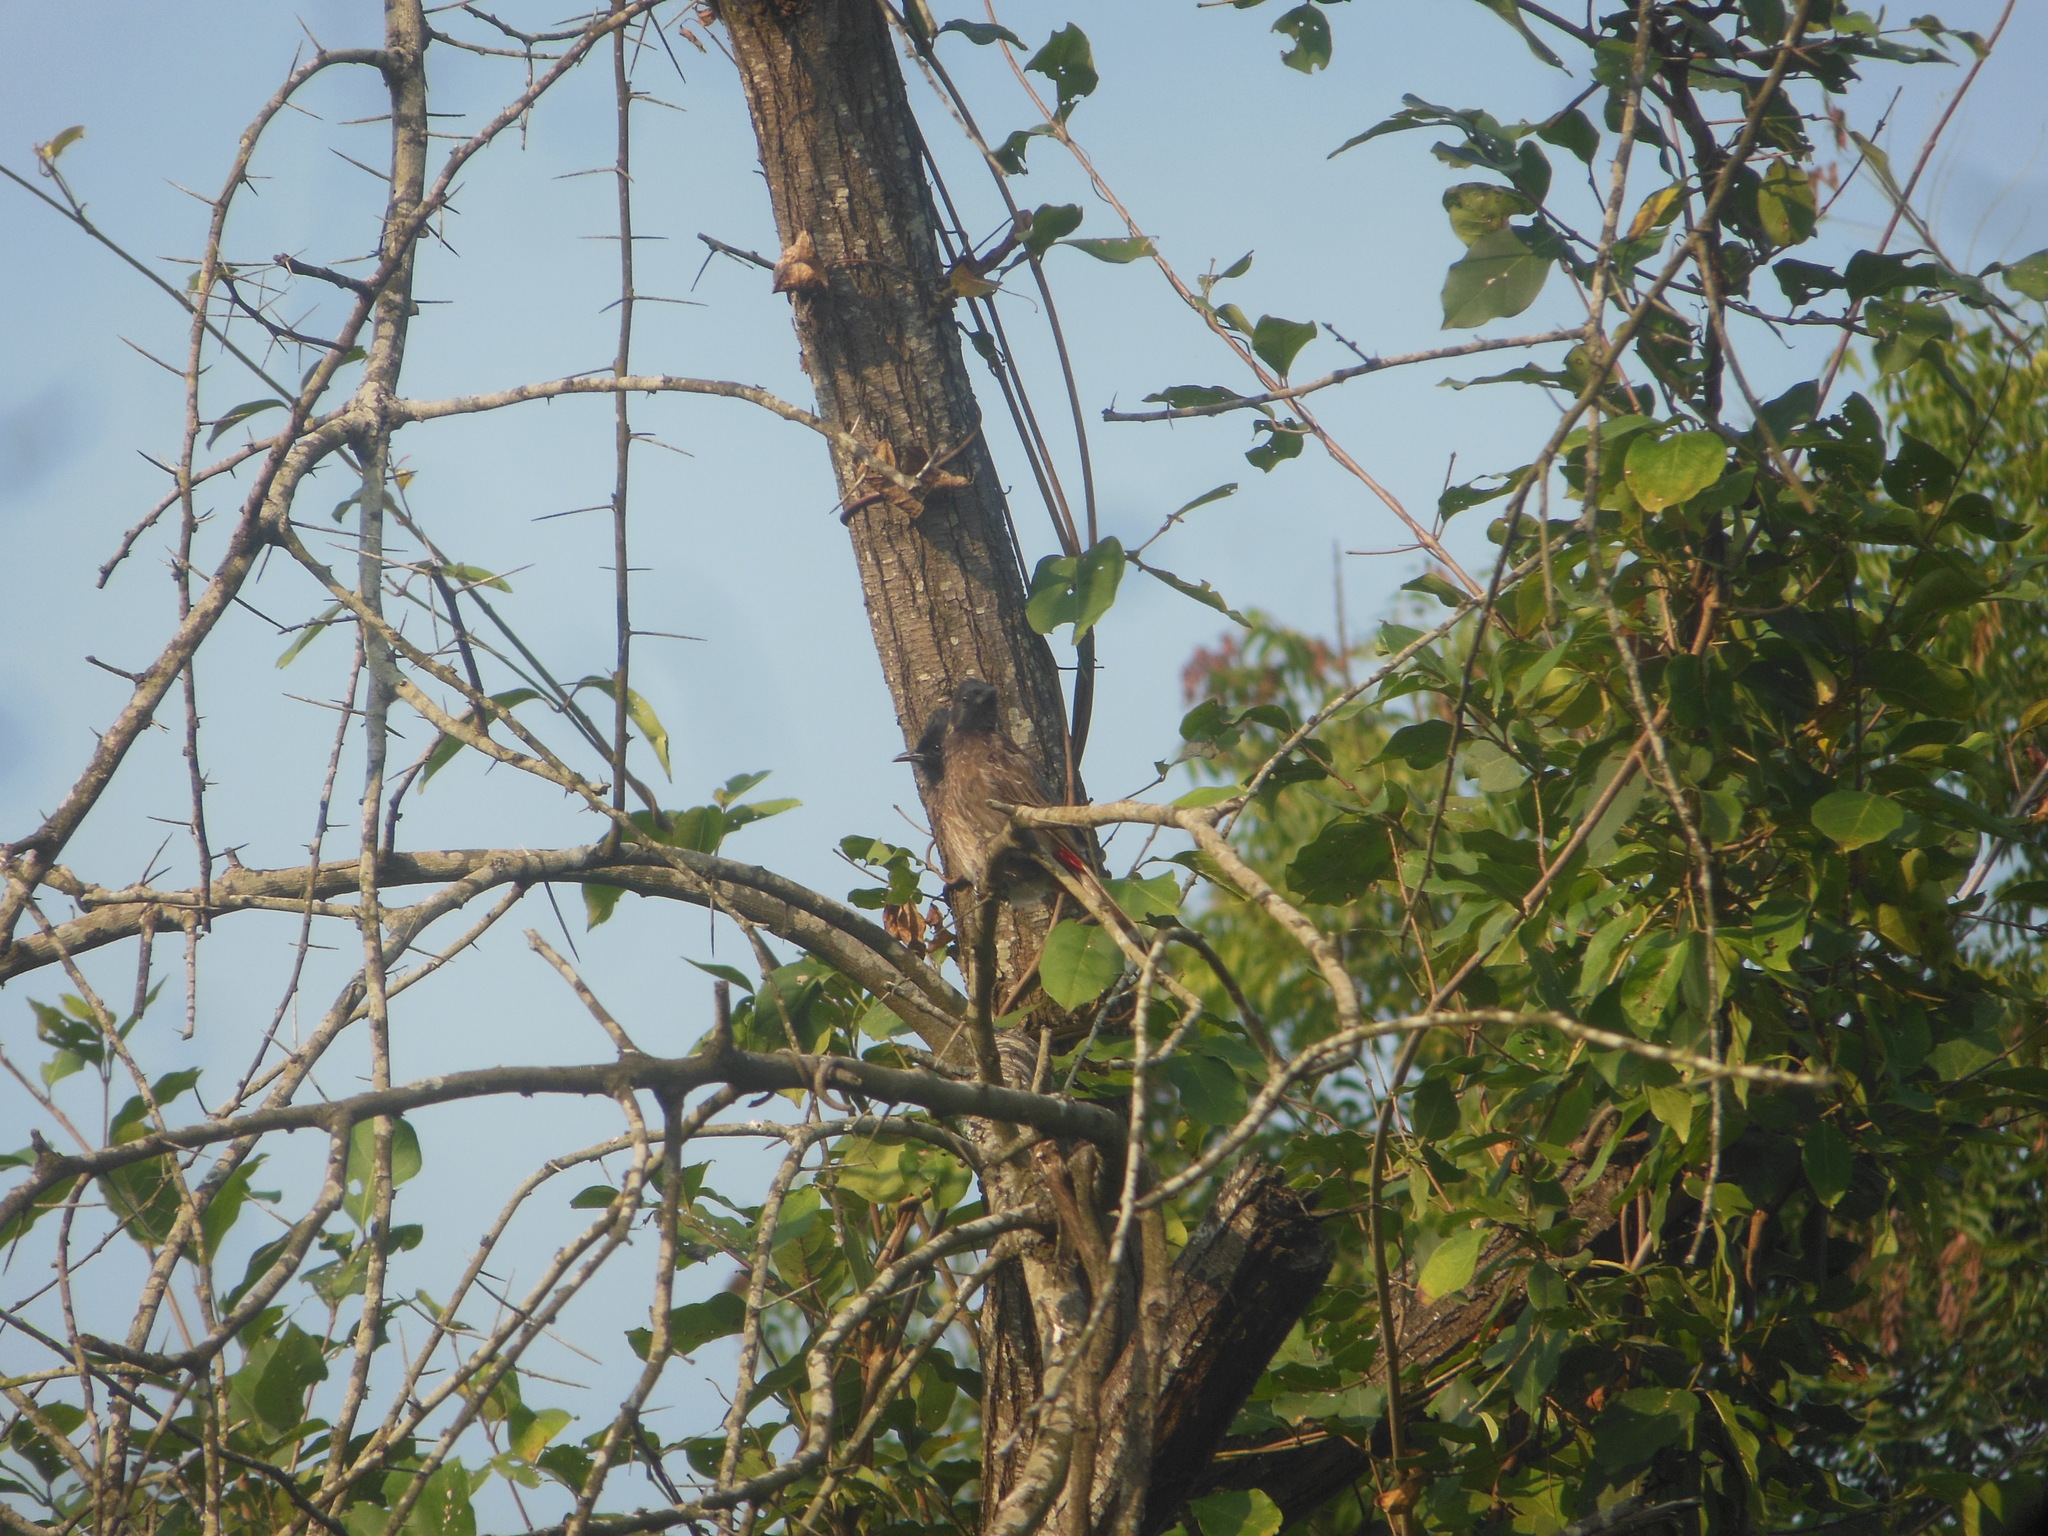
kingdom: Animalia
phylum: Chordata
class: Aves
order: Passeriformes
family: Pycnonotidae
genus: Pycnonotus
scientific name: Pycnonotus cafer
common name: Red-vented bulbul
